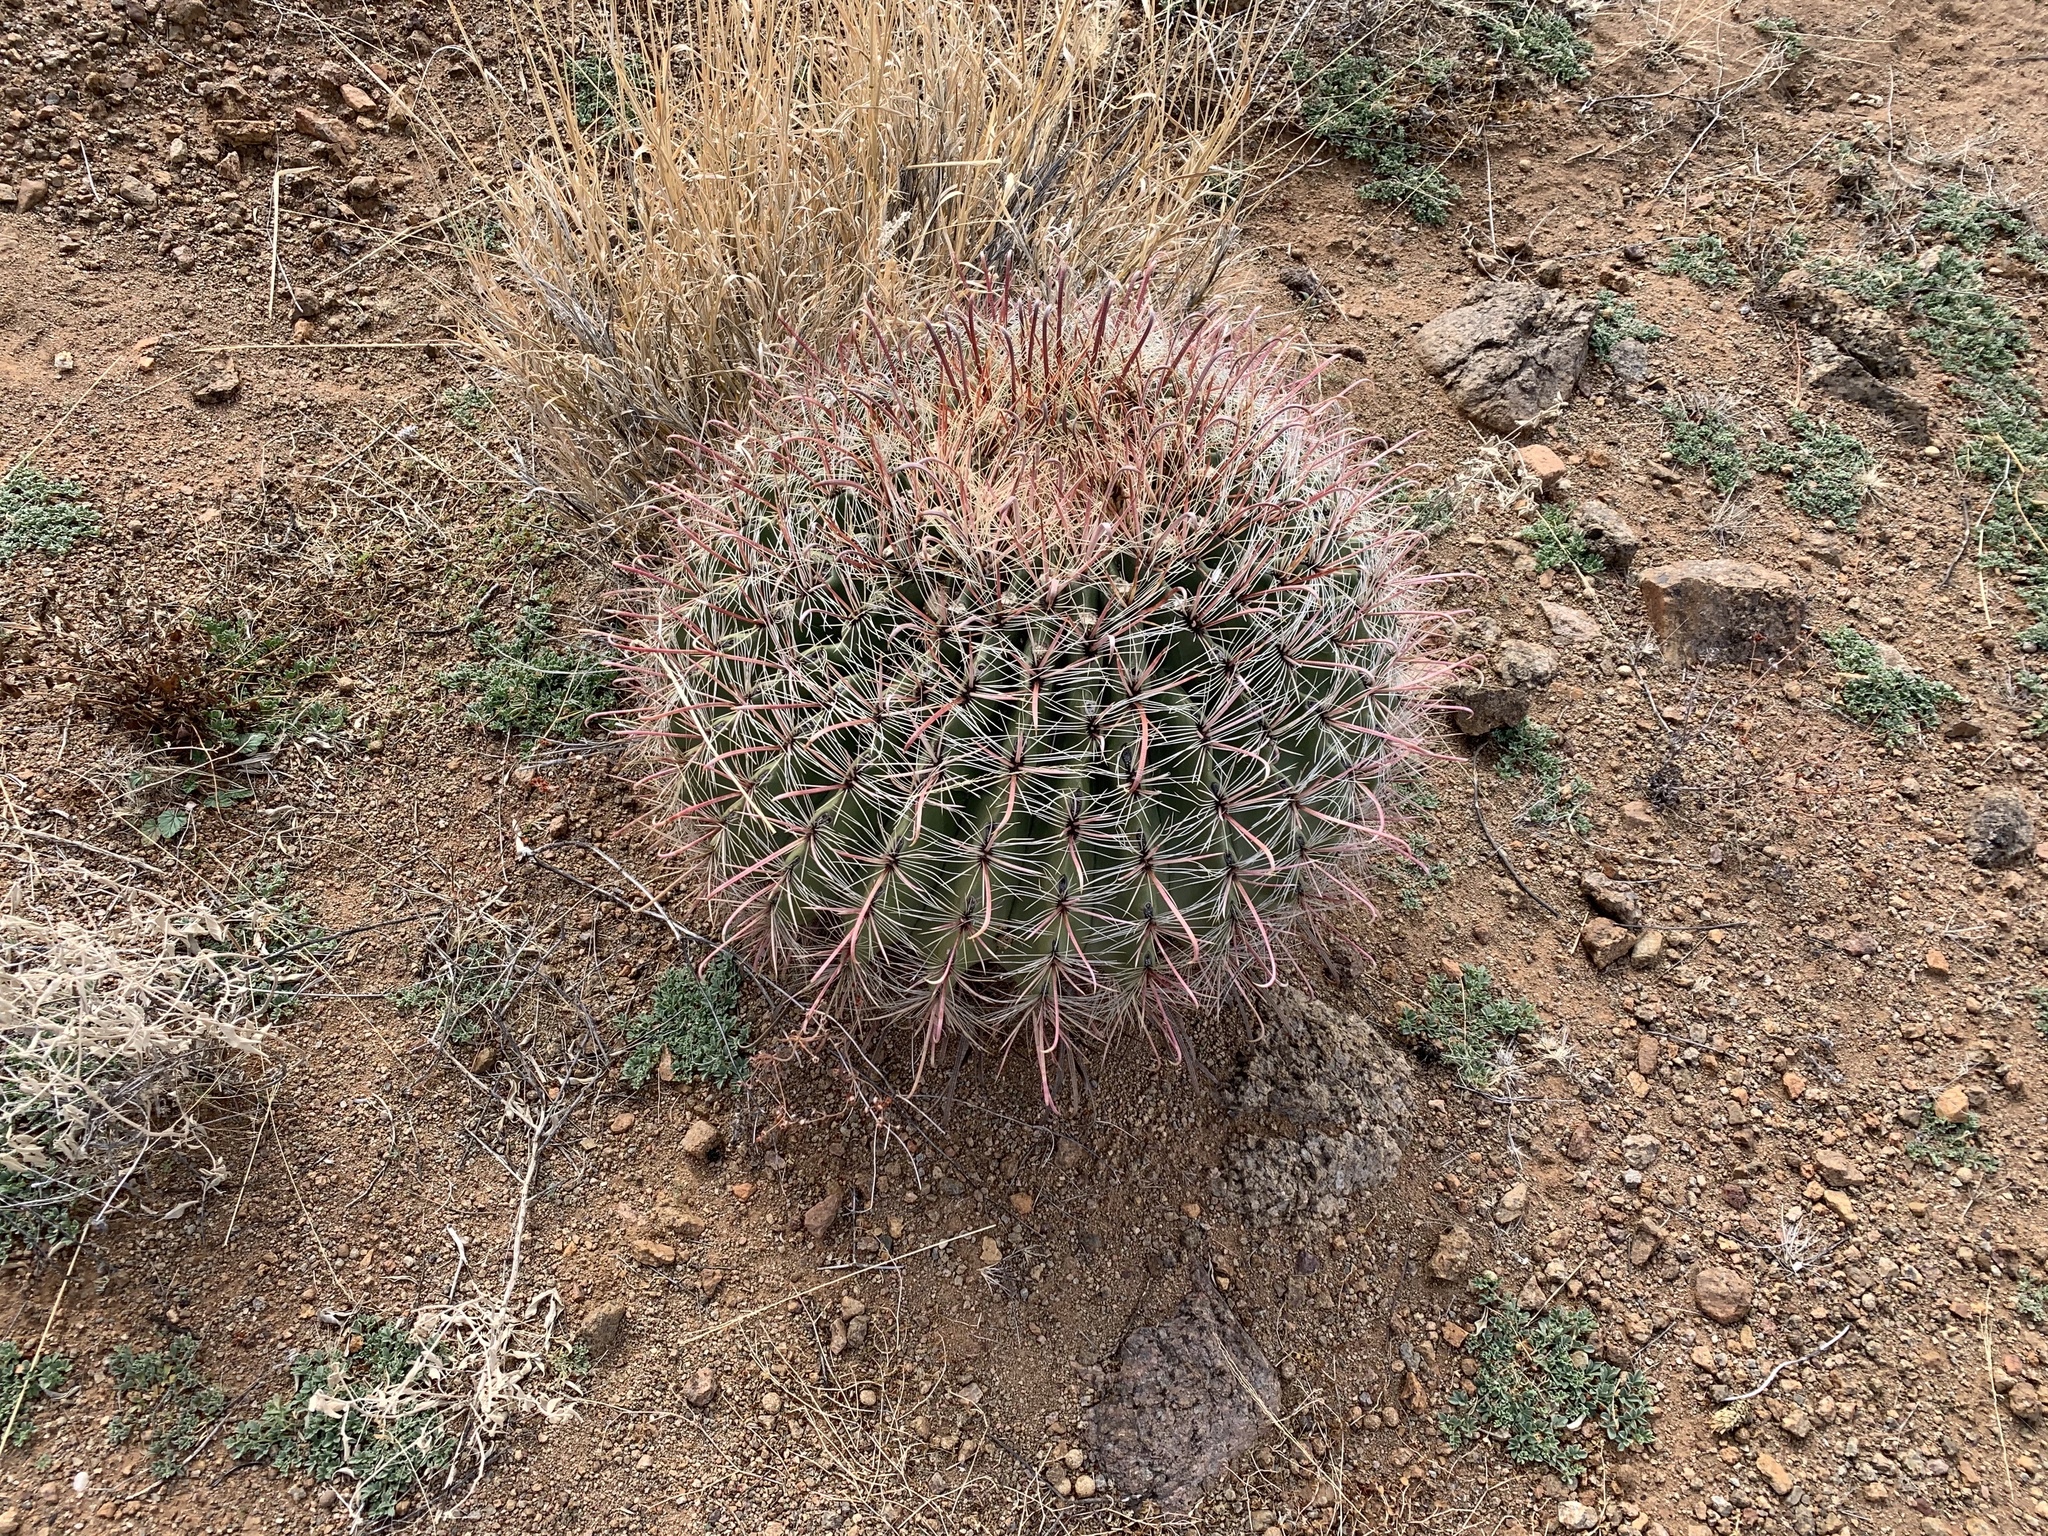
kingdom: Plantae
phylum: Tracheophyta
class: Magnoliopsida
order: Caryophyllales
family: Cactaceae
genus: Ferocactus
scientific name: Ferocactus wislizeni
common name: Candy barrel cactus
